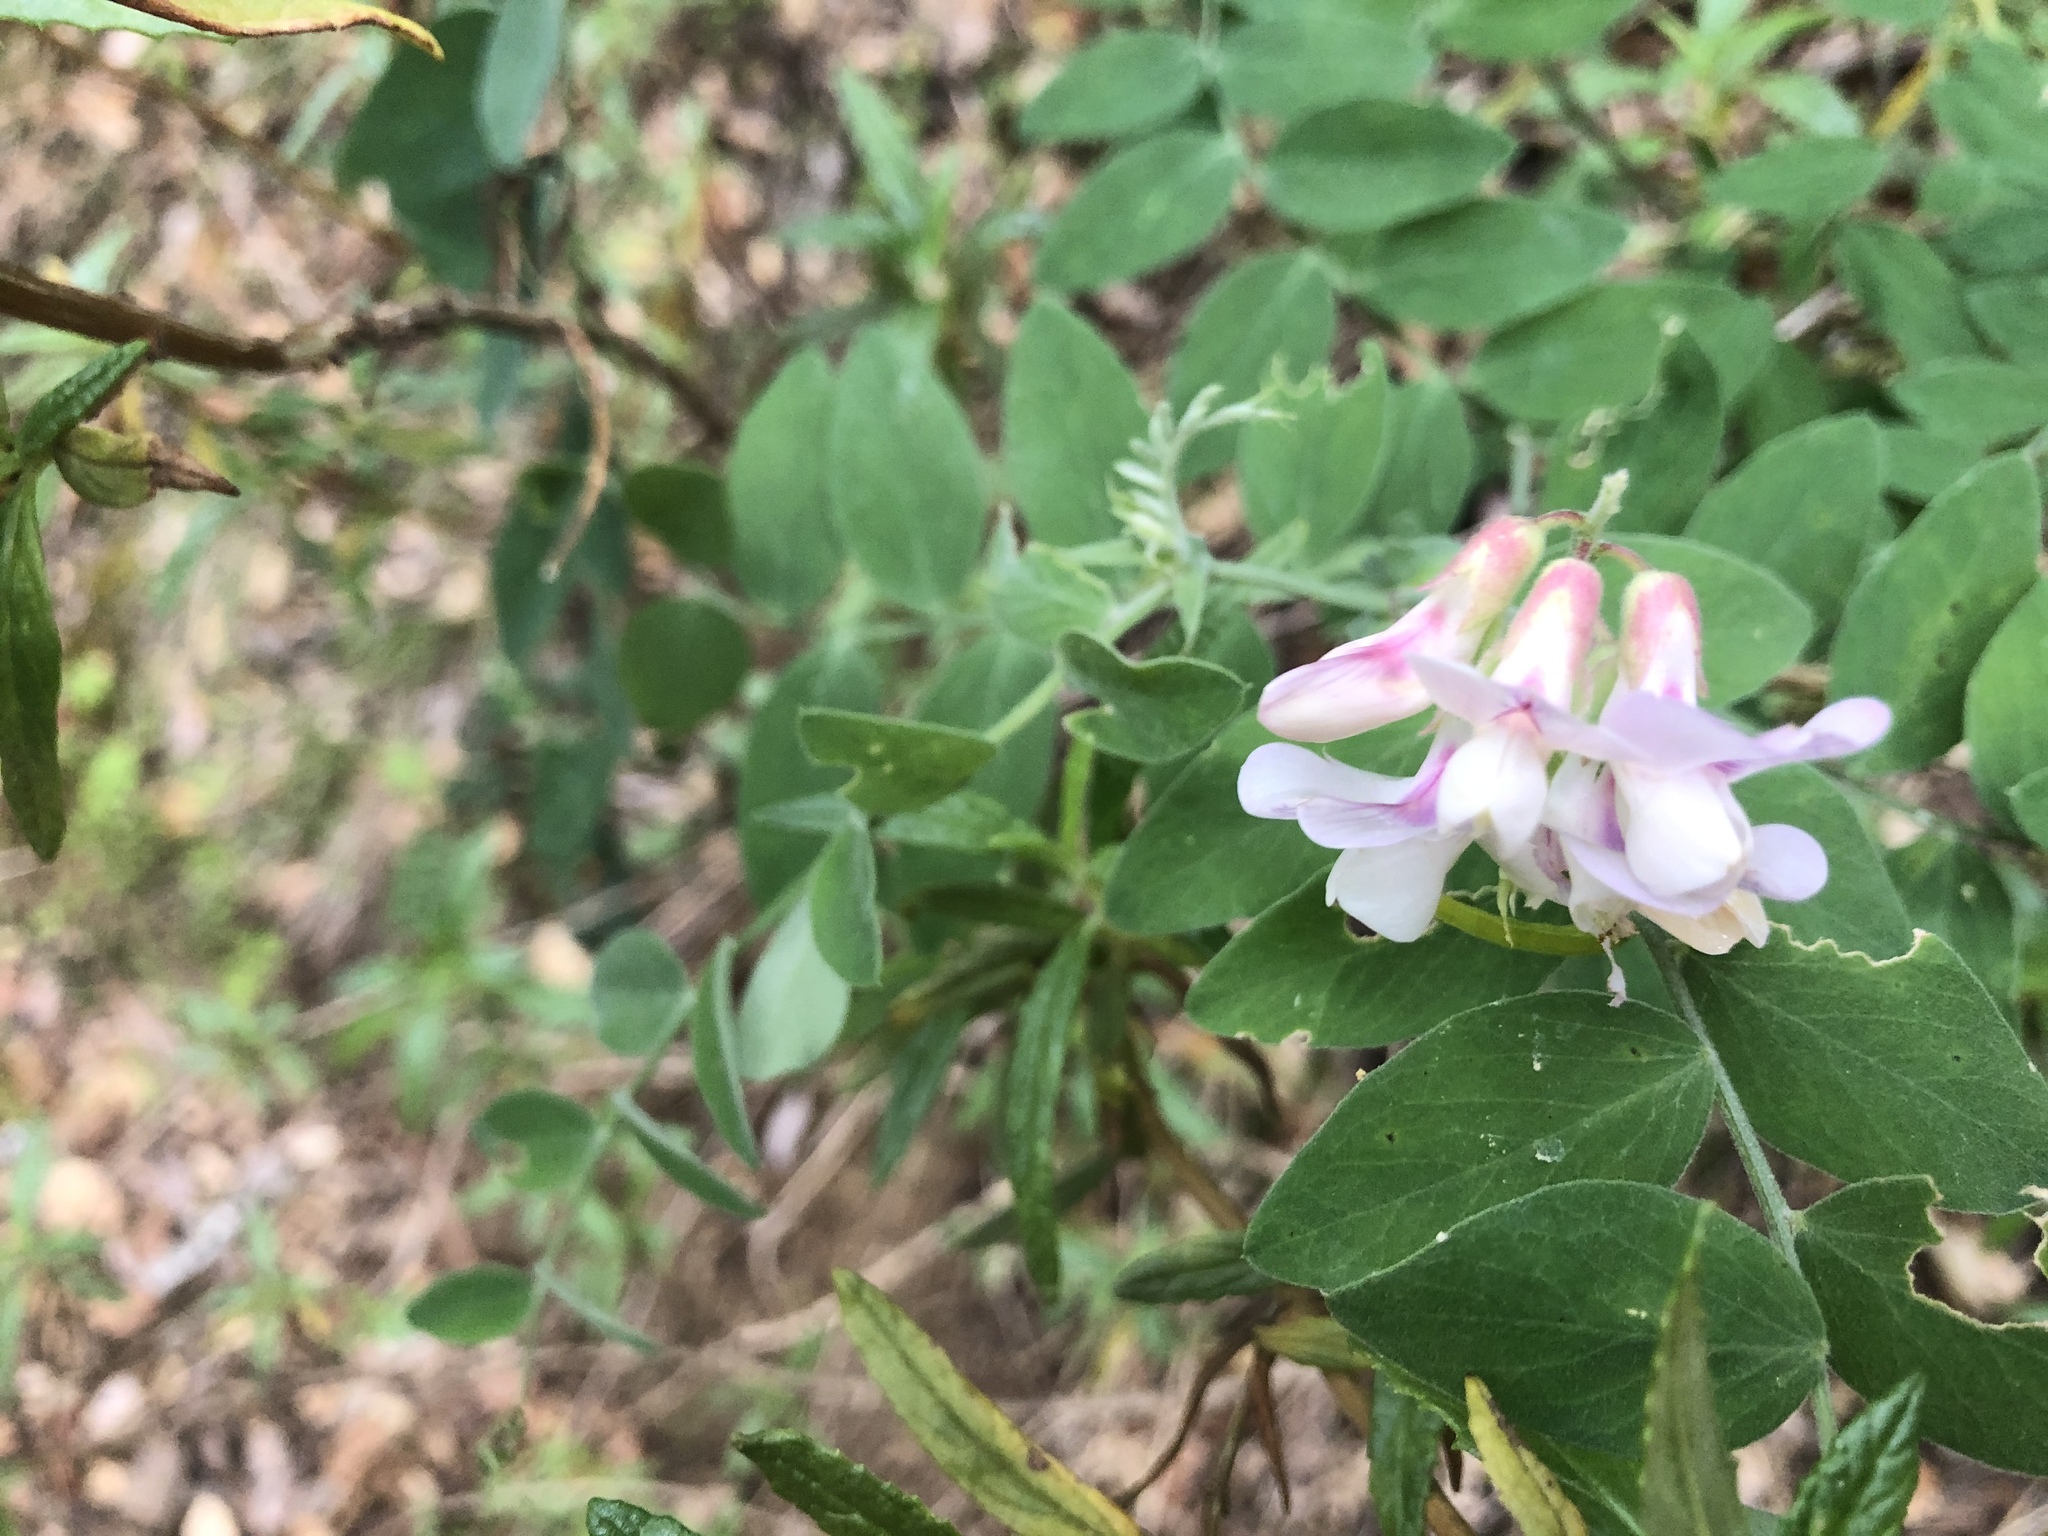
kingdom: Plantae
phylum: Tracheophyta
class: Magnoliopsida
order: Fabales
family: Fabaceae
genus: Lathyrus
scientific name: Lathyrus vestitus
